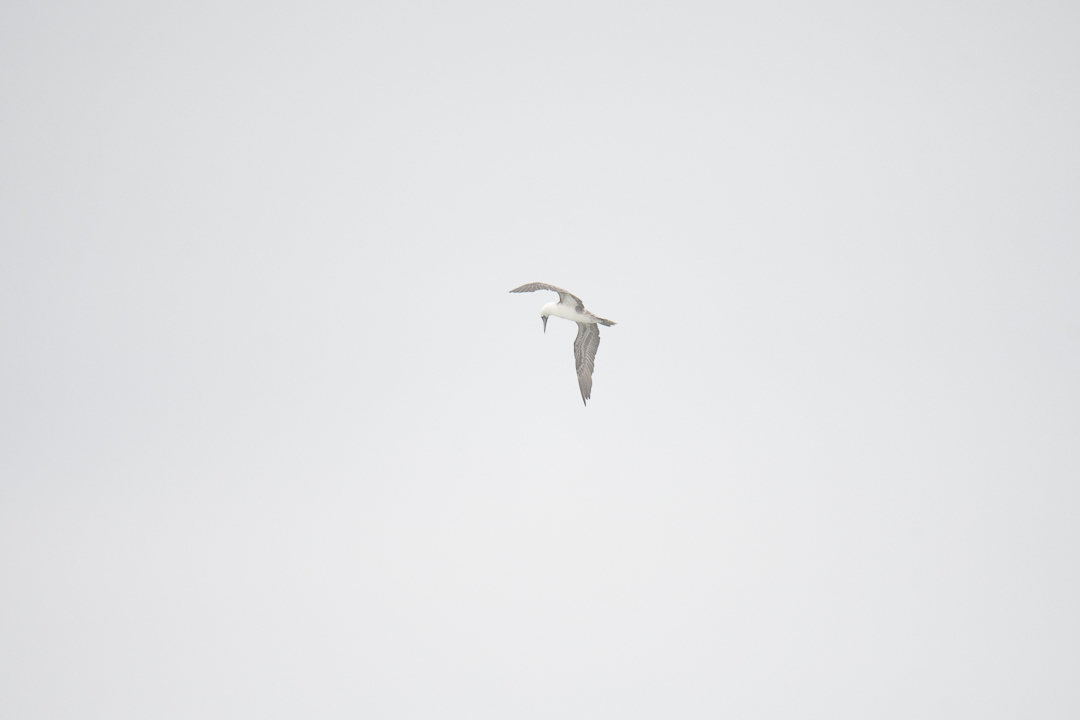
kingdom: Animalia
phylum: Chordata
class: Aves
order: Suliformes
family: Sulidae
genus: Sula
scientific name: Sula variegata
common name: Peruvian booby
